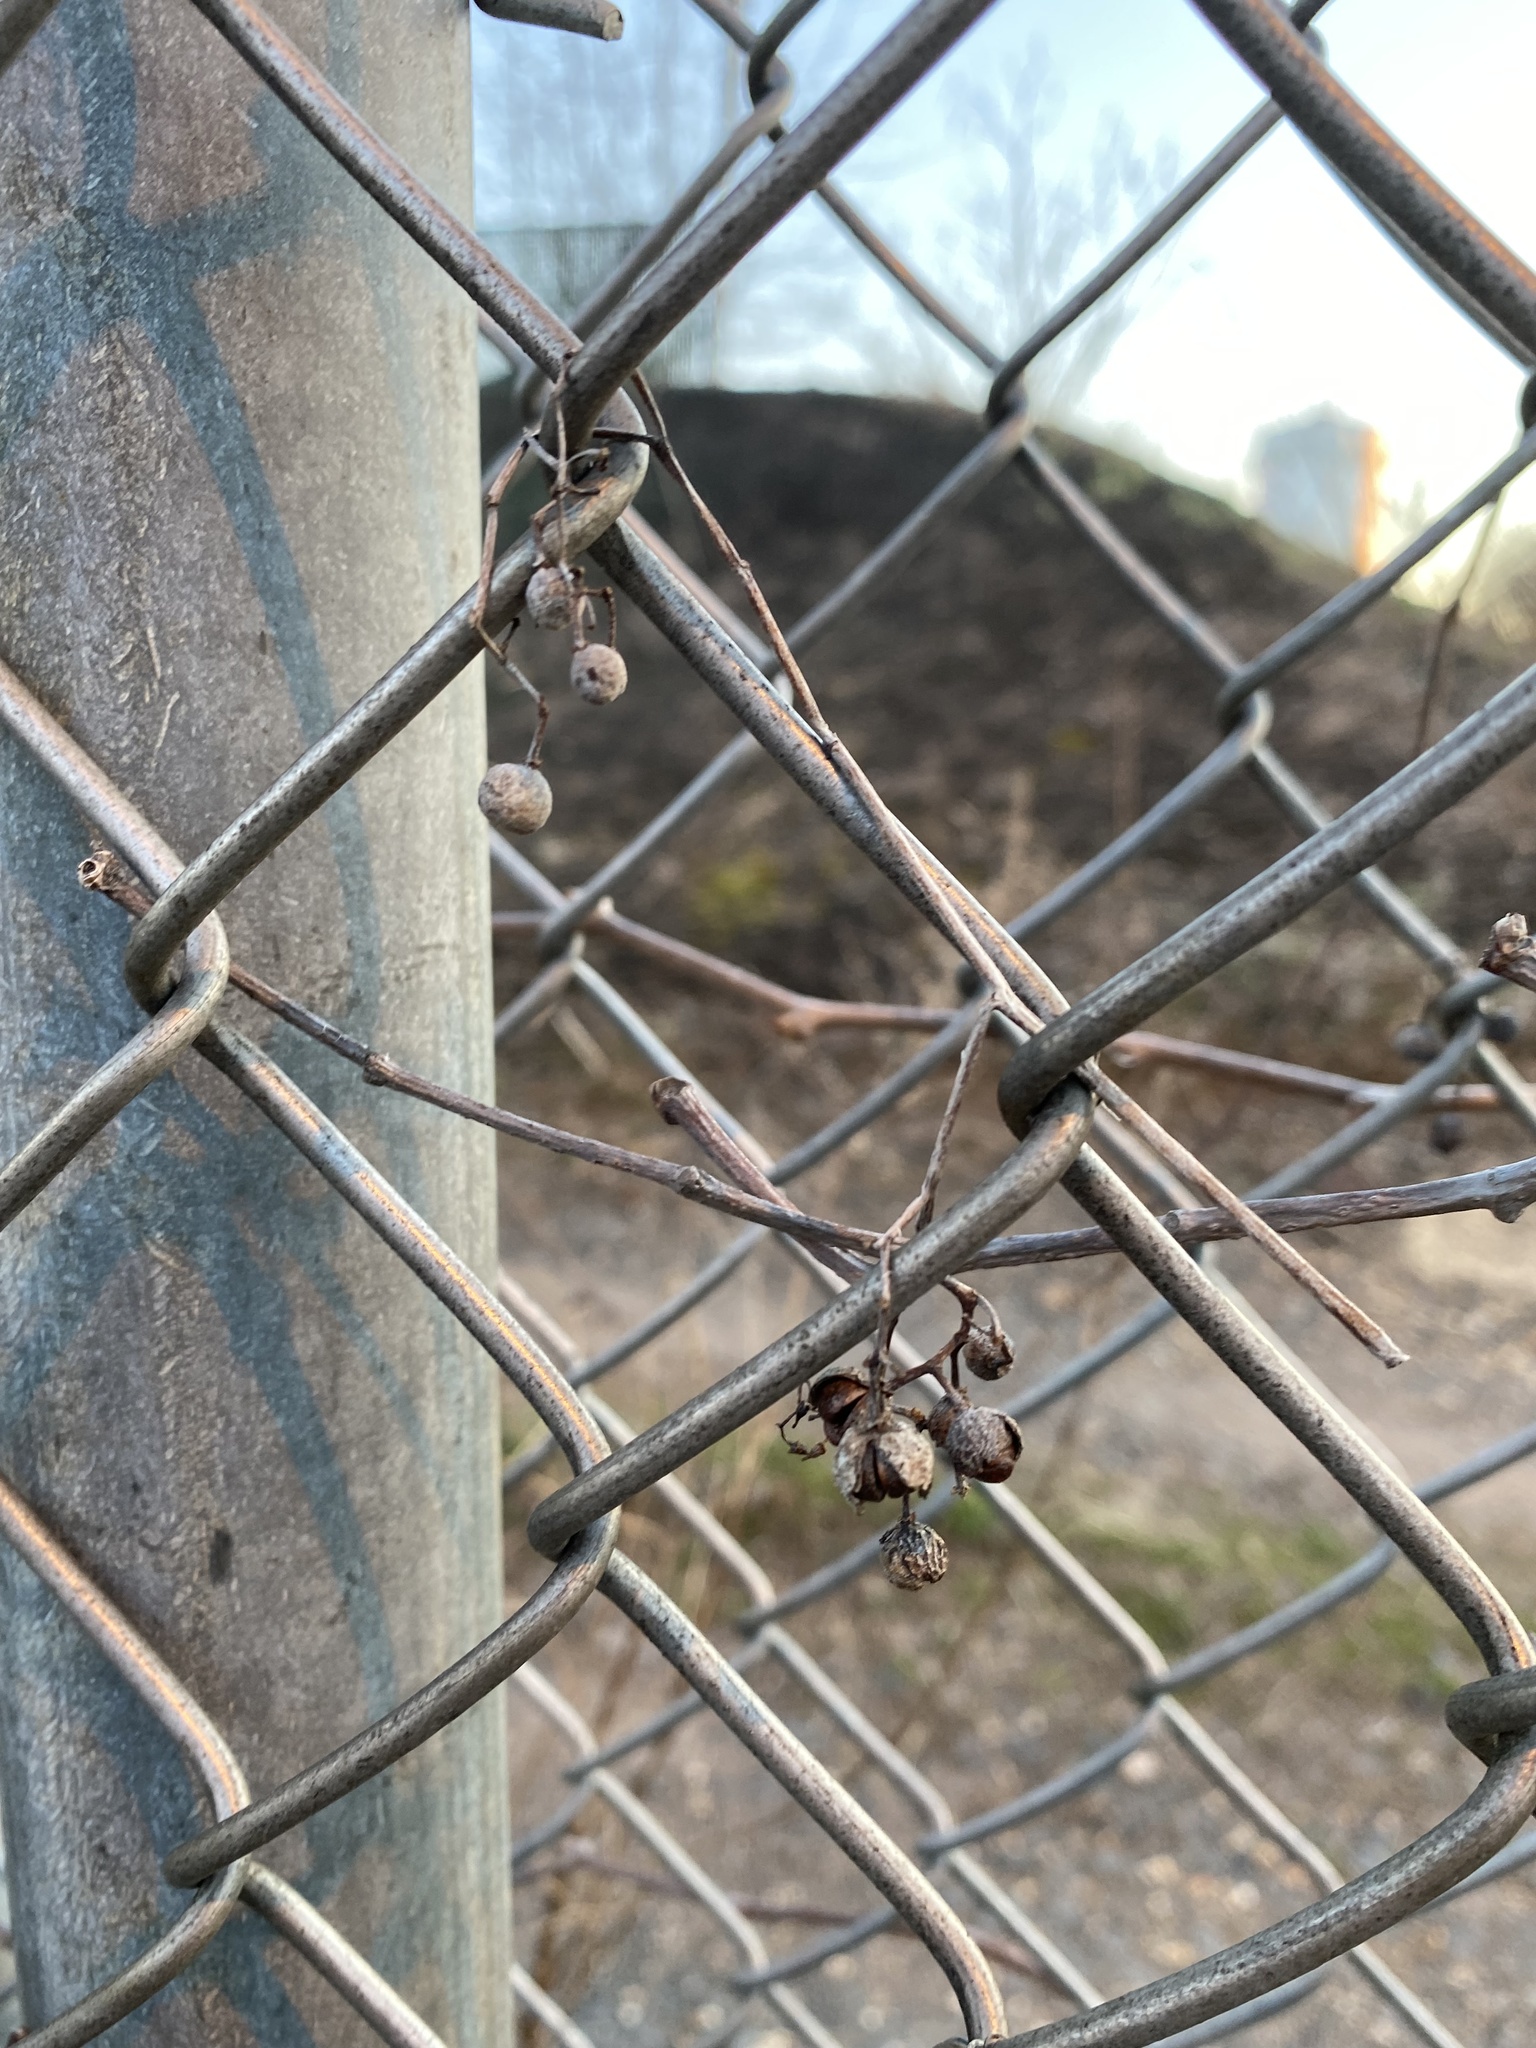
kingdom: Plantae
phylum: Tracheophyta
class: Magnoliopsida
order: Celastrales
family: Celastraceae
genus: Celastrus
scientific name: Celastrus orbiculatus
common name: Oriental bittersweet
